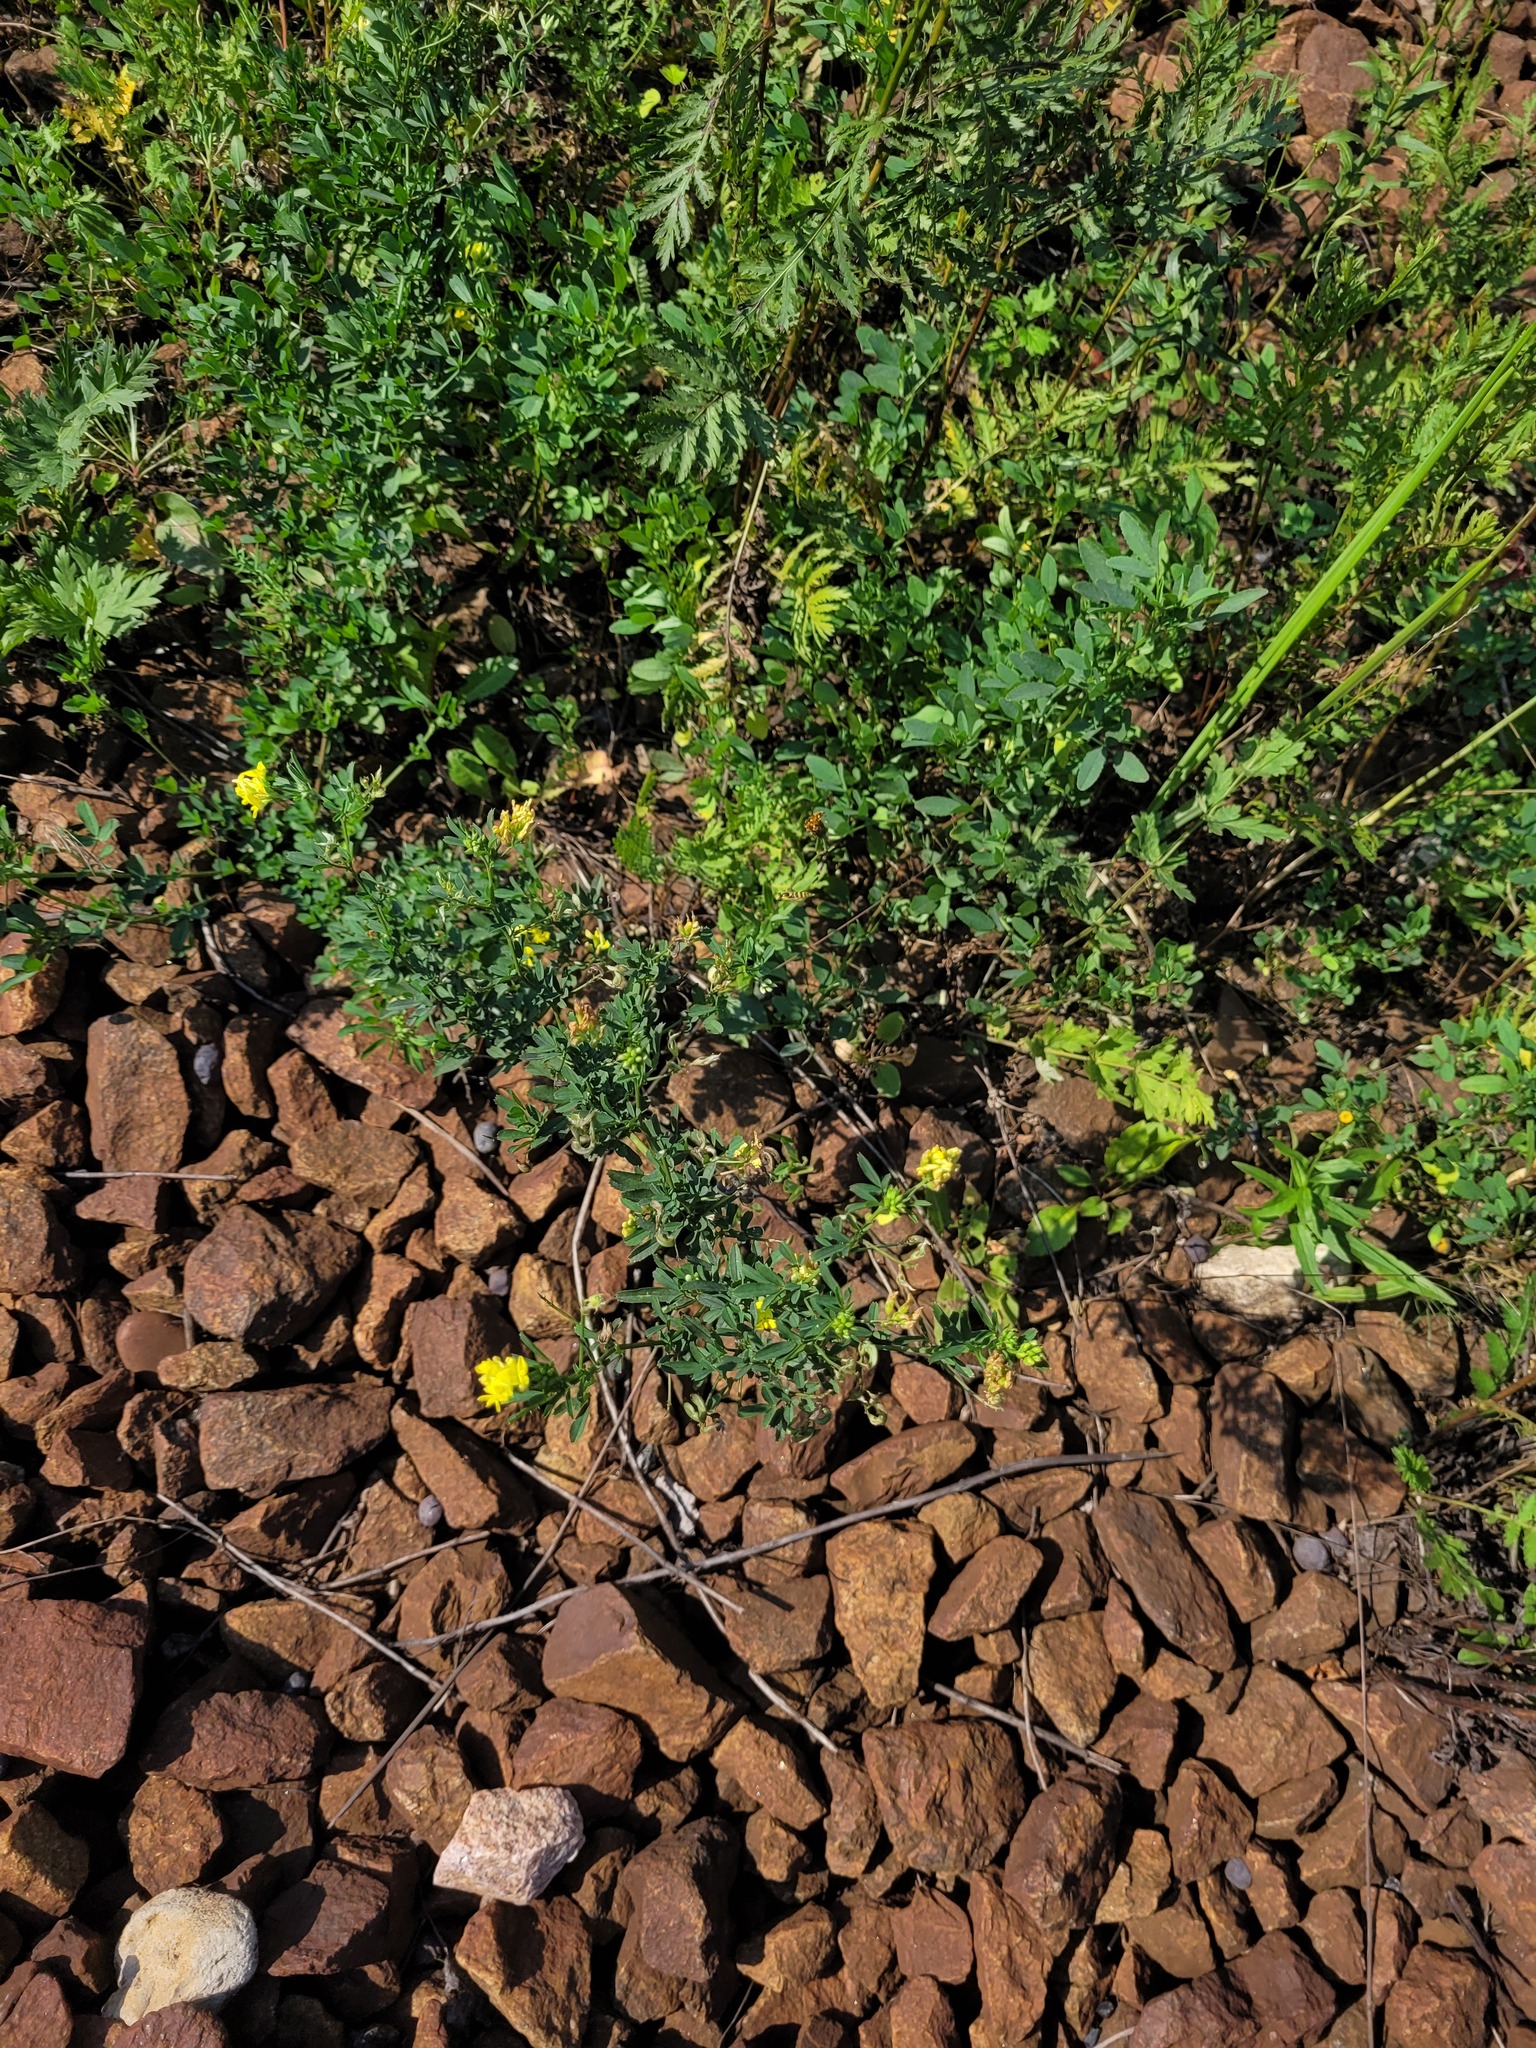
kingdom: Plantae
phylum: Tracheophyta
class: Magnoliopsida
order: Fabales
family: Fabaceae
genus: Medicago
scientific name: Medicago falcata
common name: Sickle medick
